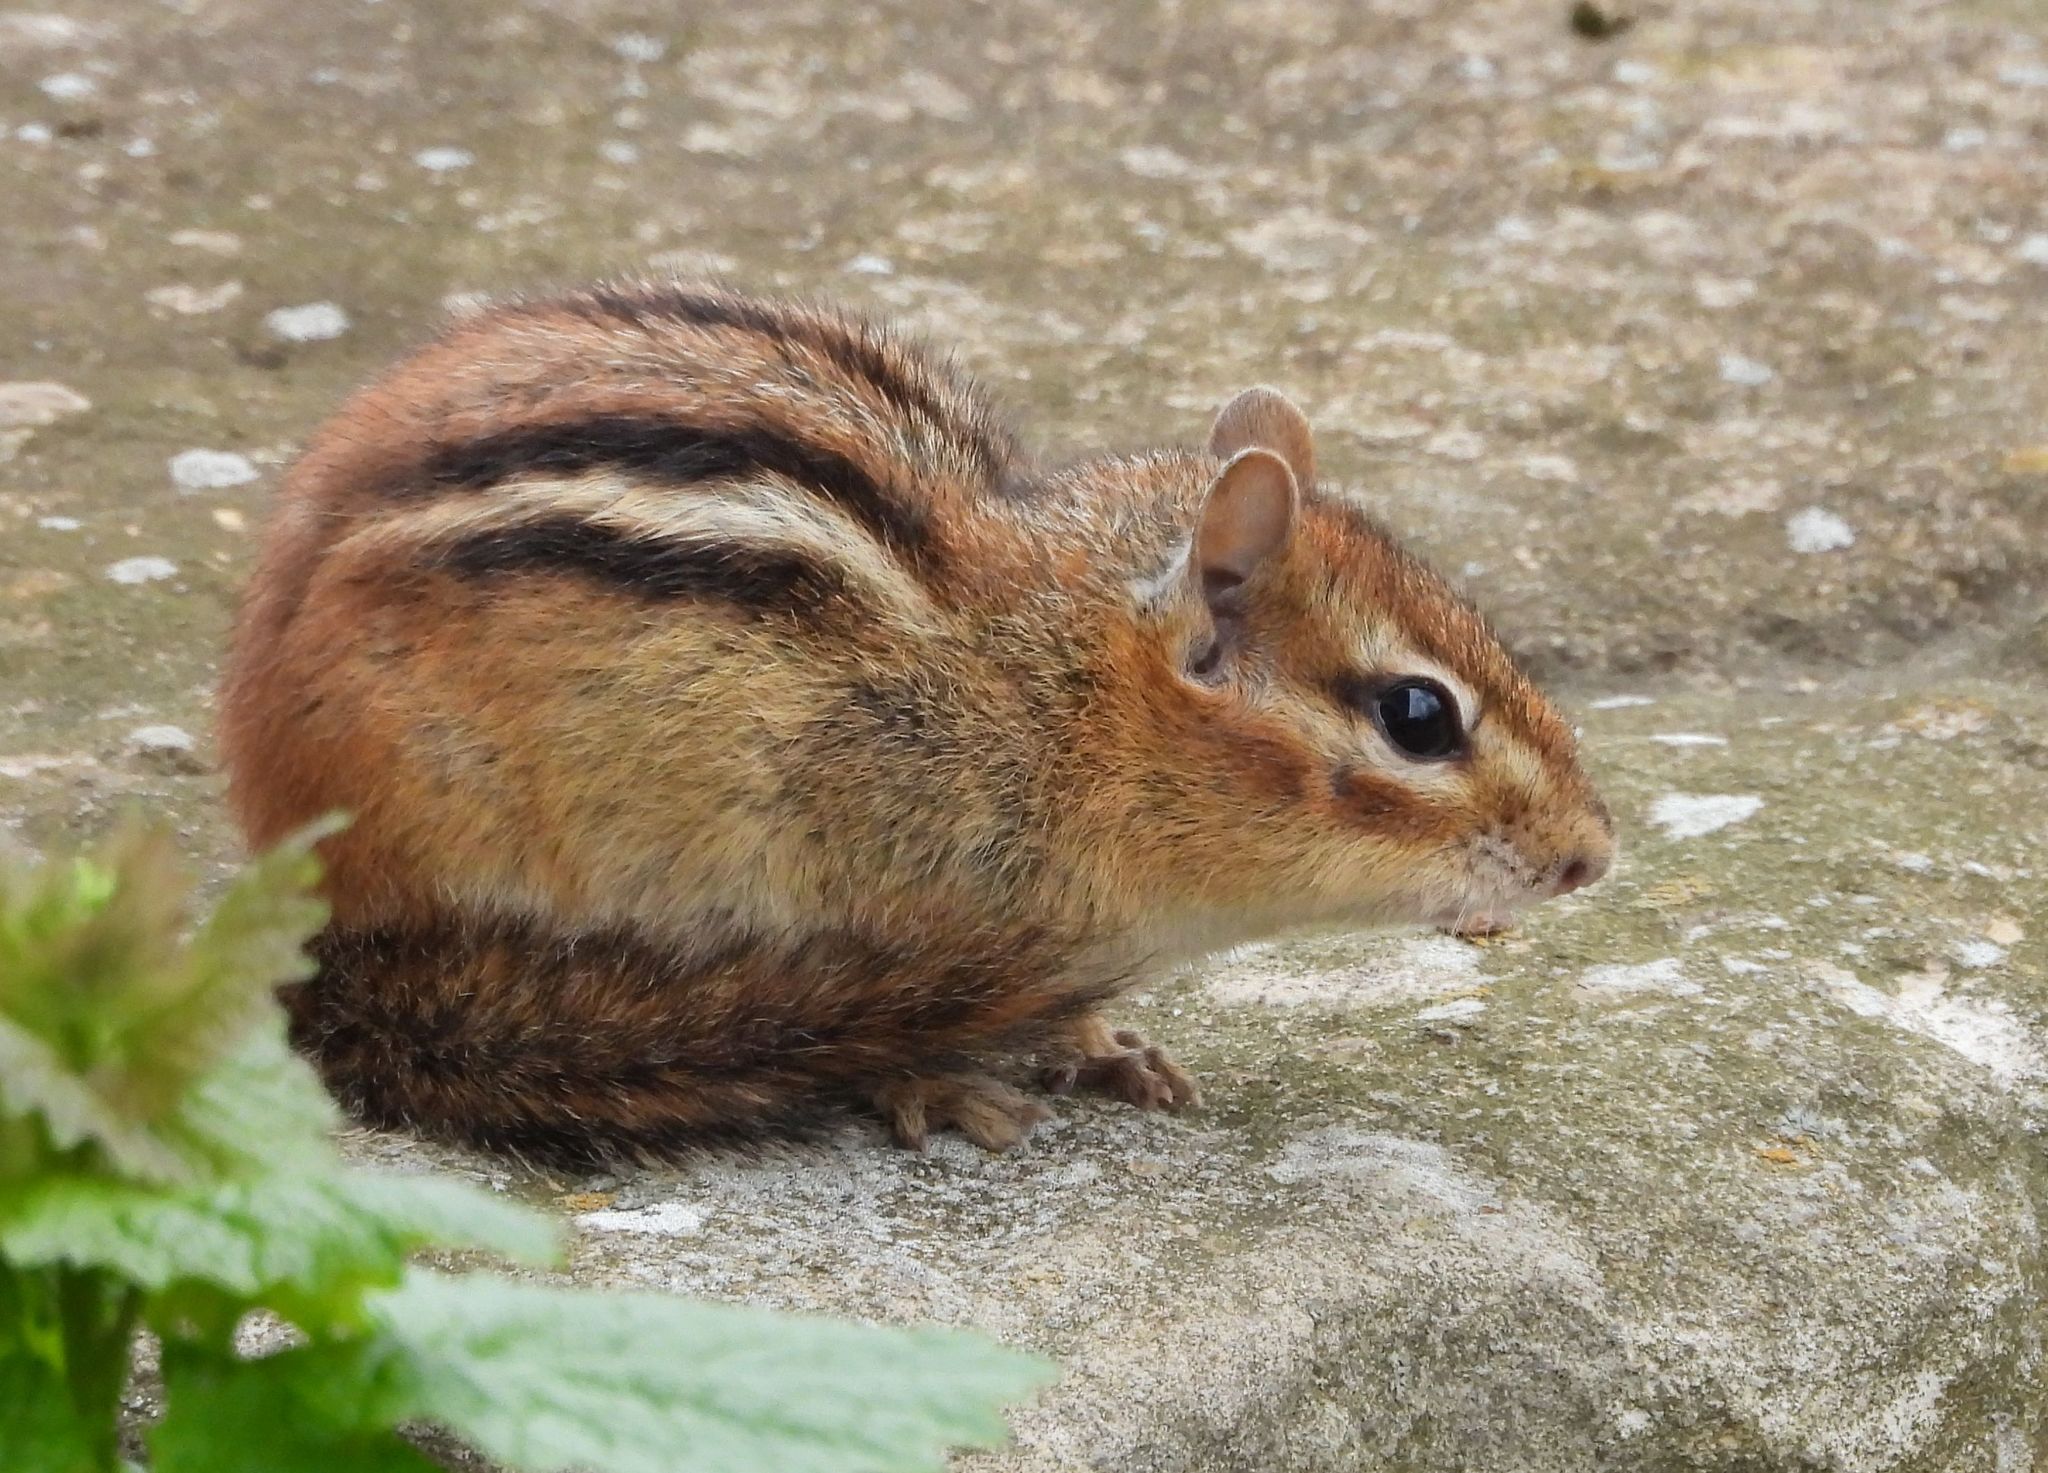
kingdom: Animalia
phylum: Chordata
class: Mammalia
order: Rodentia
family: Sciuridae
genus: Tamias
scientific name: Tamias striatus
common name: Eastern chipmunk
